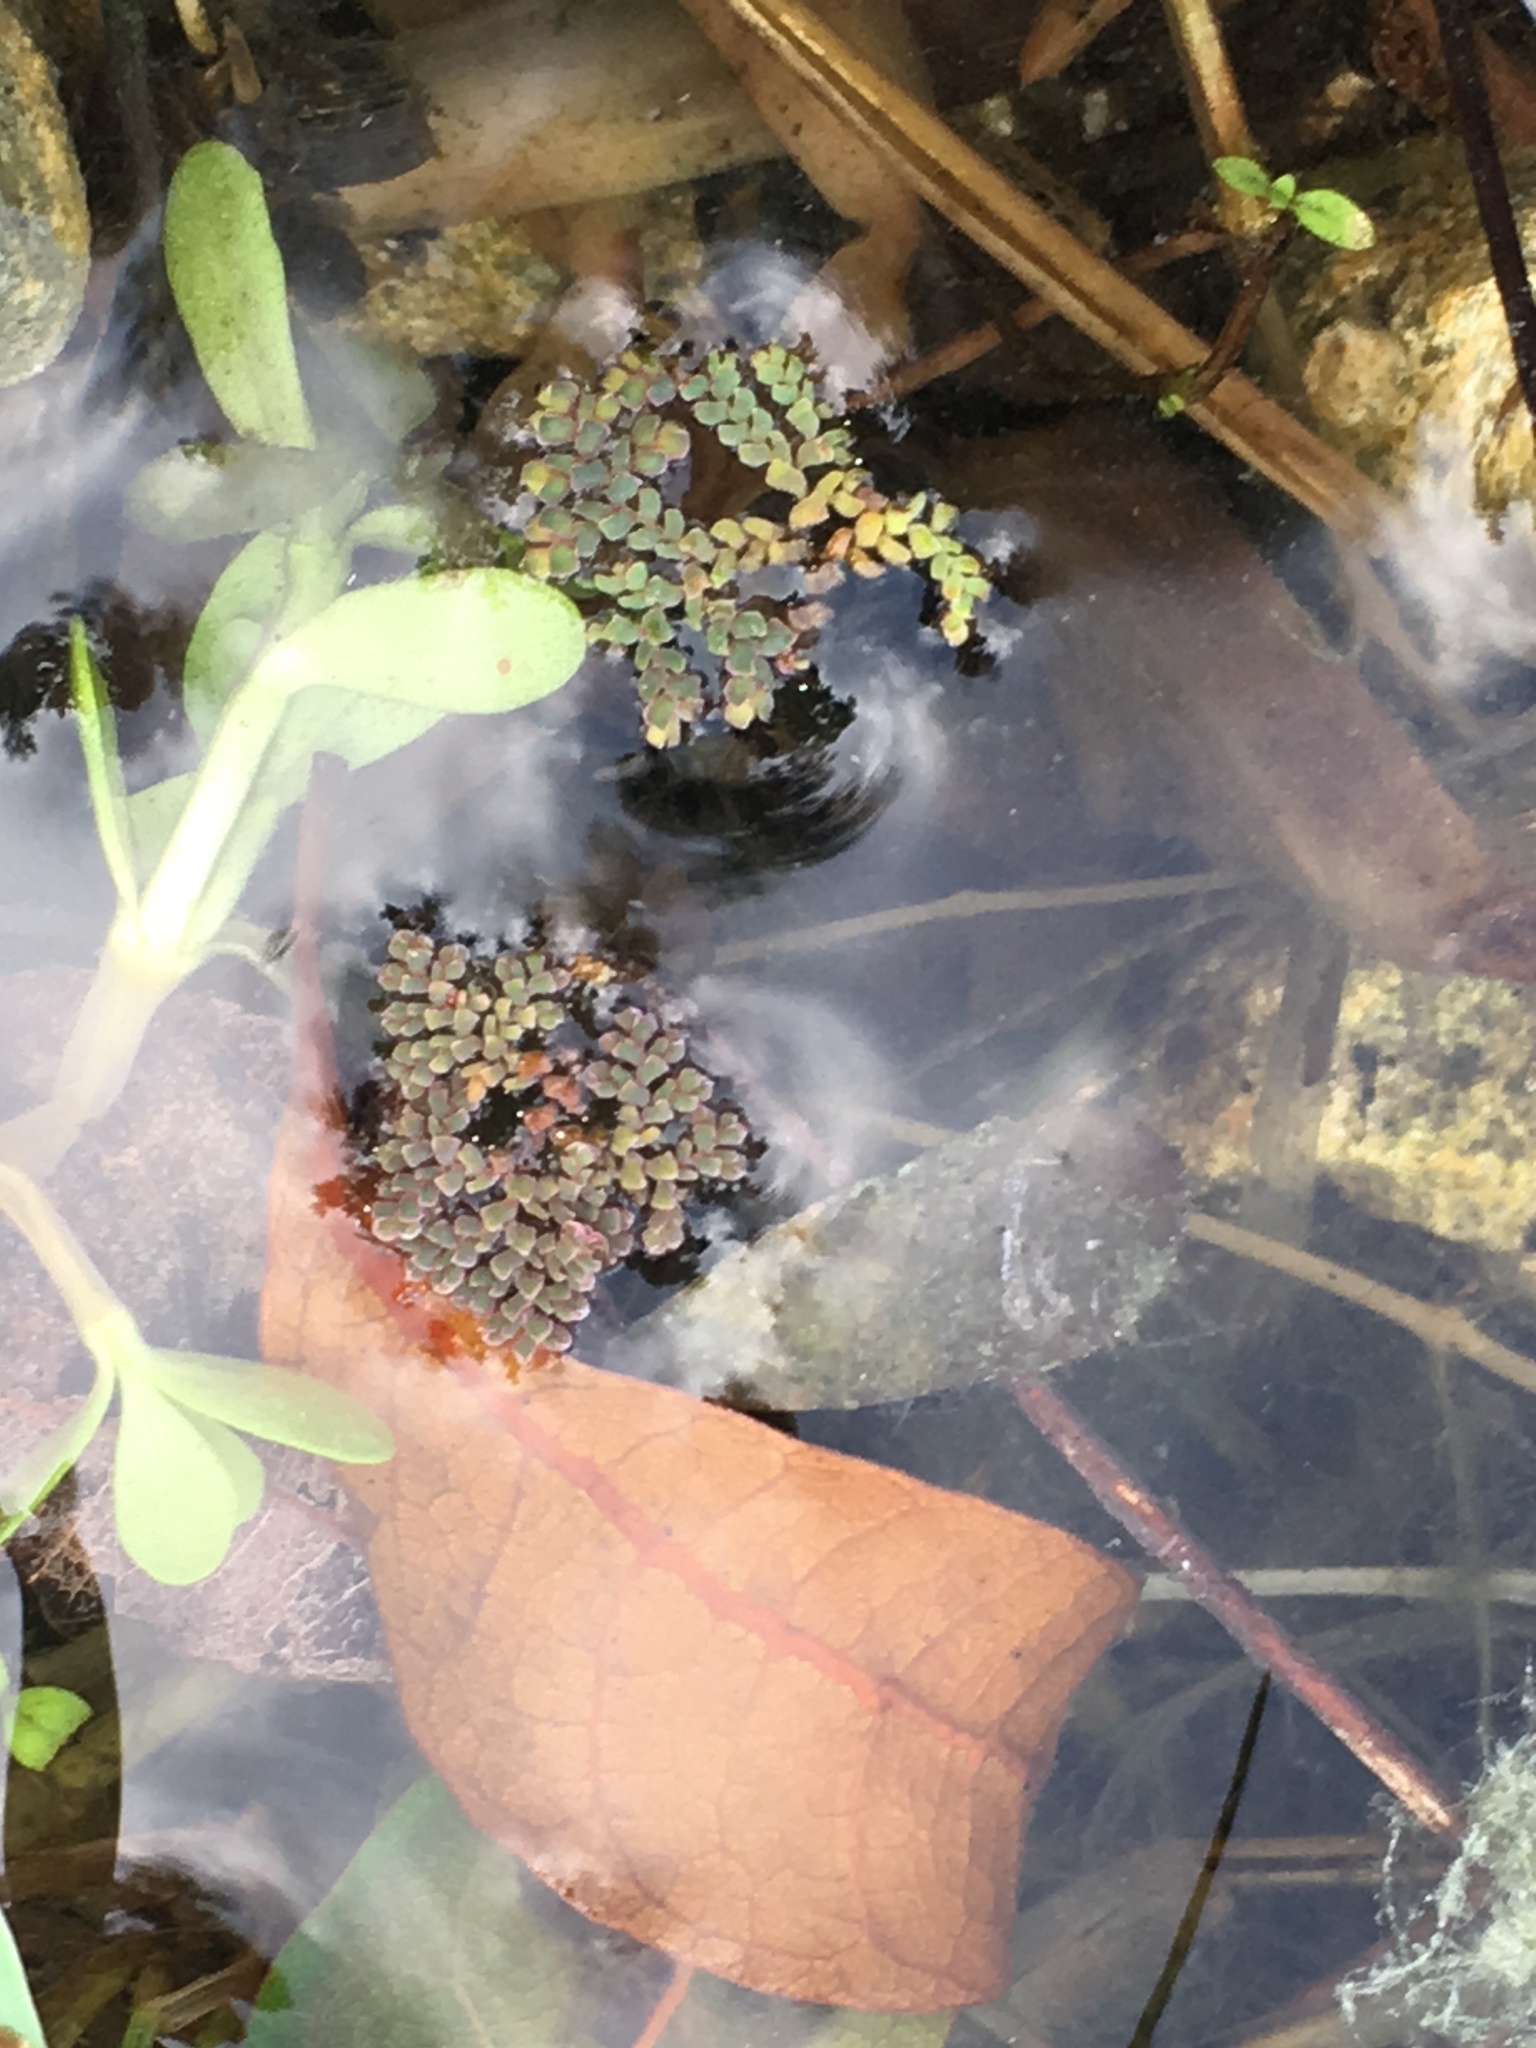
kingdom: Plantae
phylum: Tracheophyta
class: Polypodiopsida
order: Salviniales
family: Salviniaceae
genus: Azolla
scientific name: Azolla pinnata
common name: Ferny azolla
